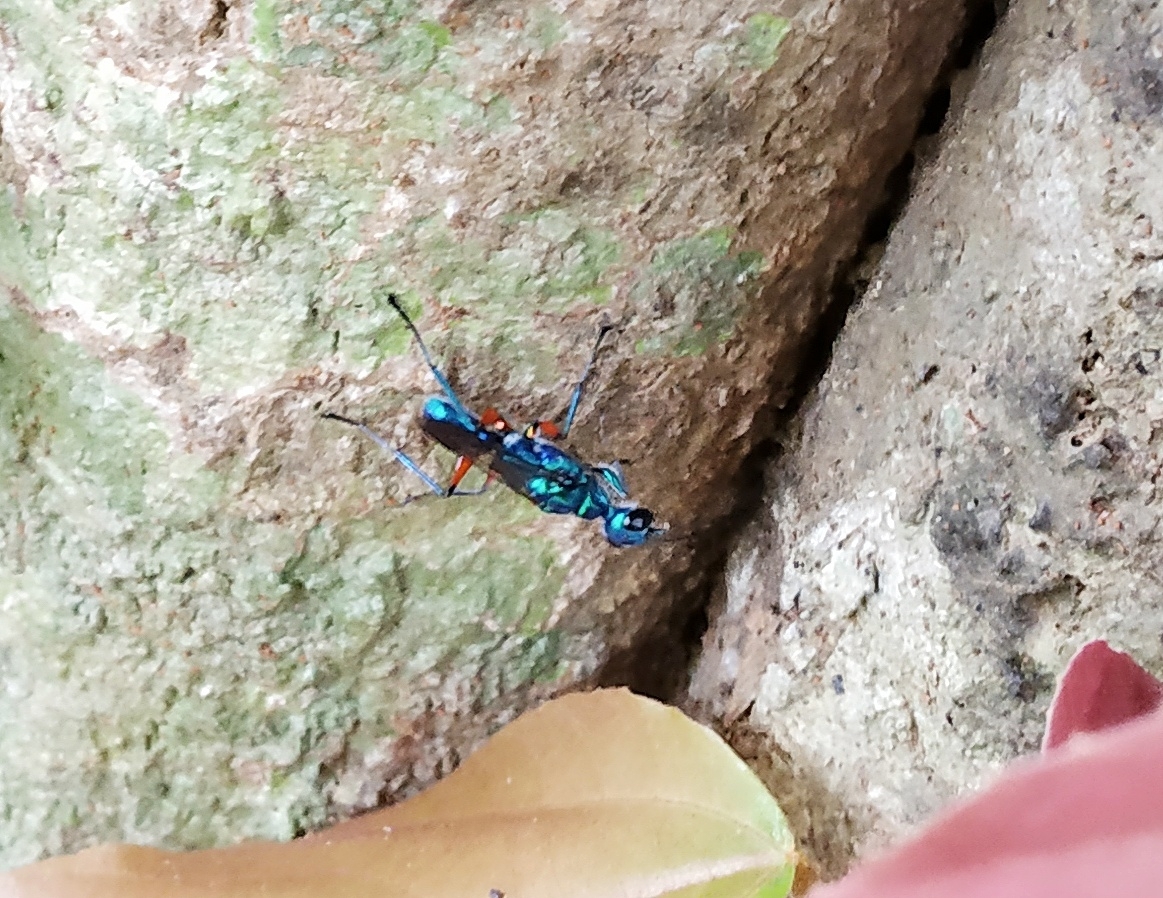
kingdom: Animalia
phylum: Arthropoda
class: Insecta
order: Hymenoptera
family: Ampulicidae
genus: Ampulex
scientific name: Ampulex compressa
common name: Emerald cockroach wasp
